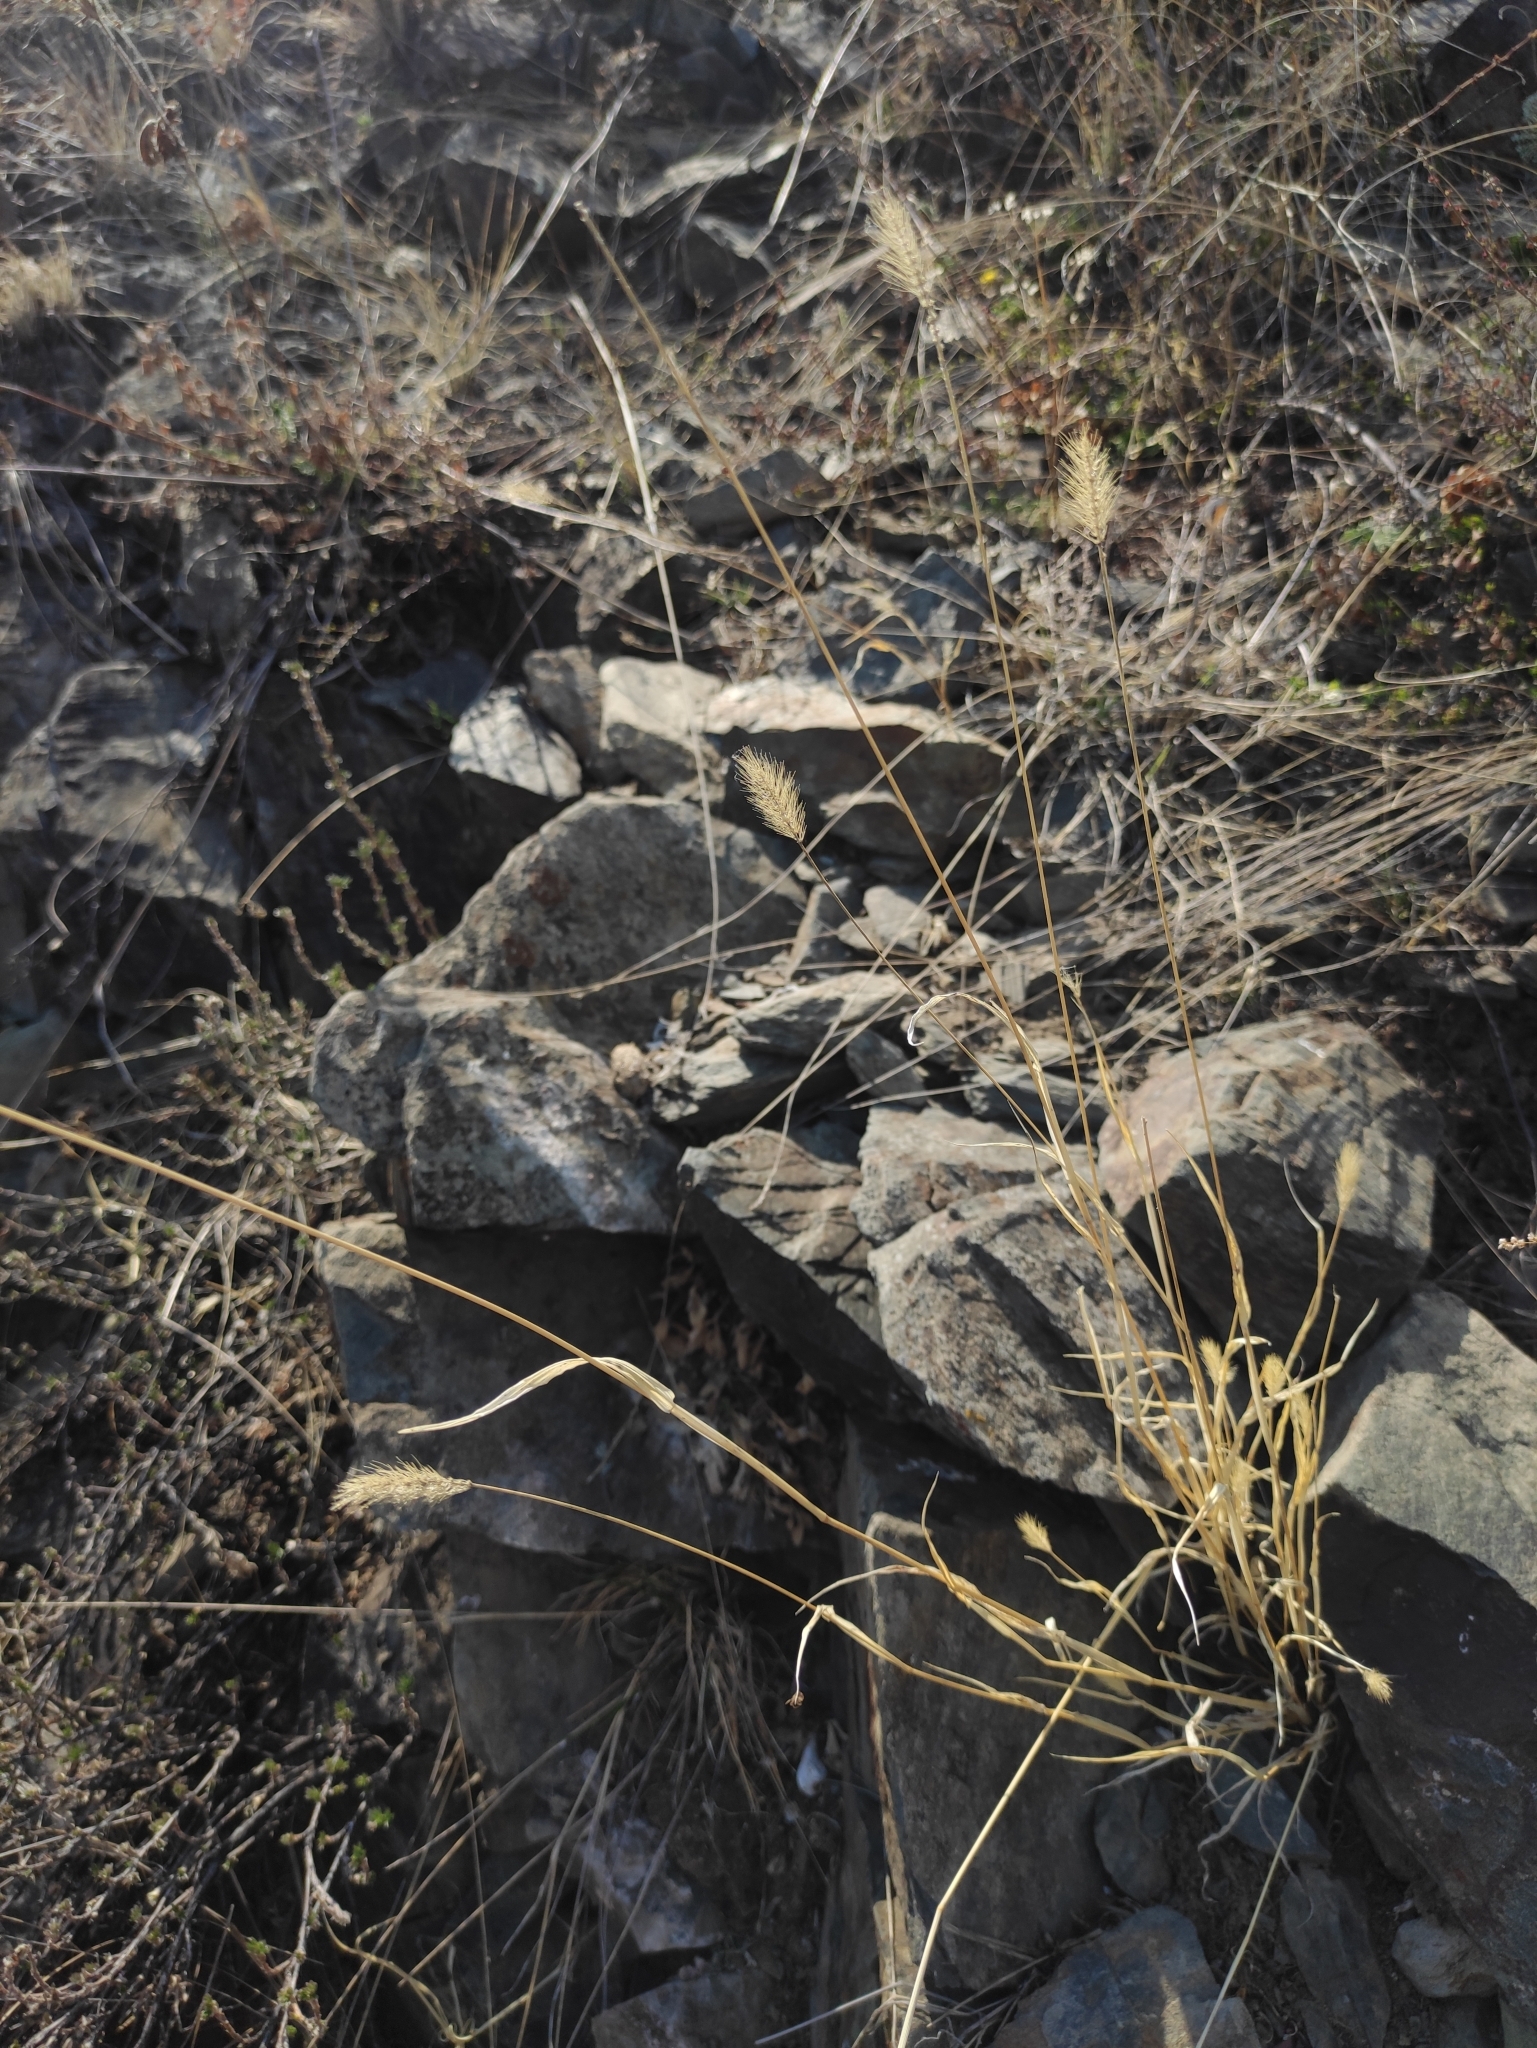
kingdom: Plantae
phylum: Tracheophyta
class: Liliopsida
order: Poales
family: Poaceae
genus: Setaria
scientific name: Setaria viridis
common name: Green bristlegrass
